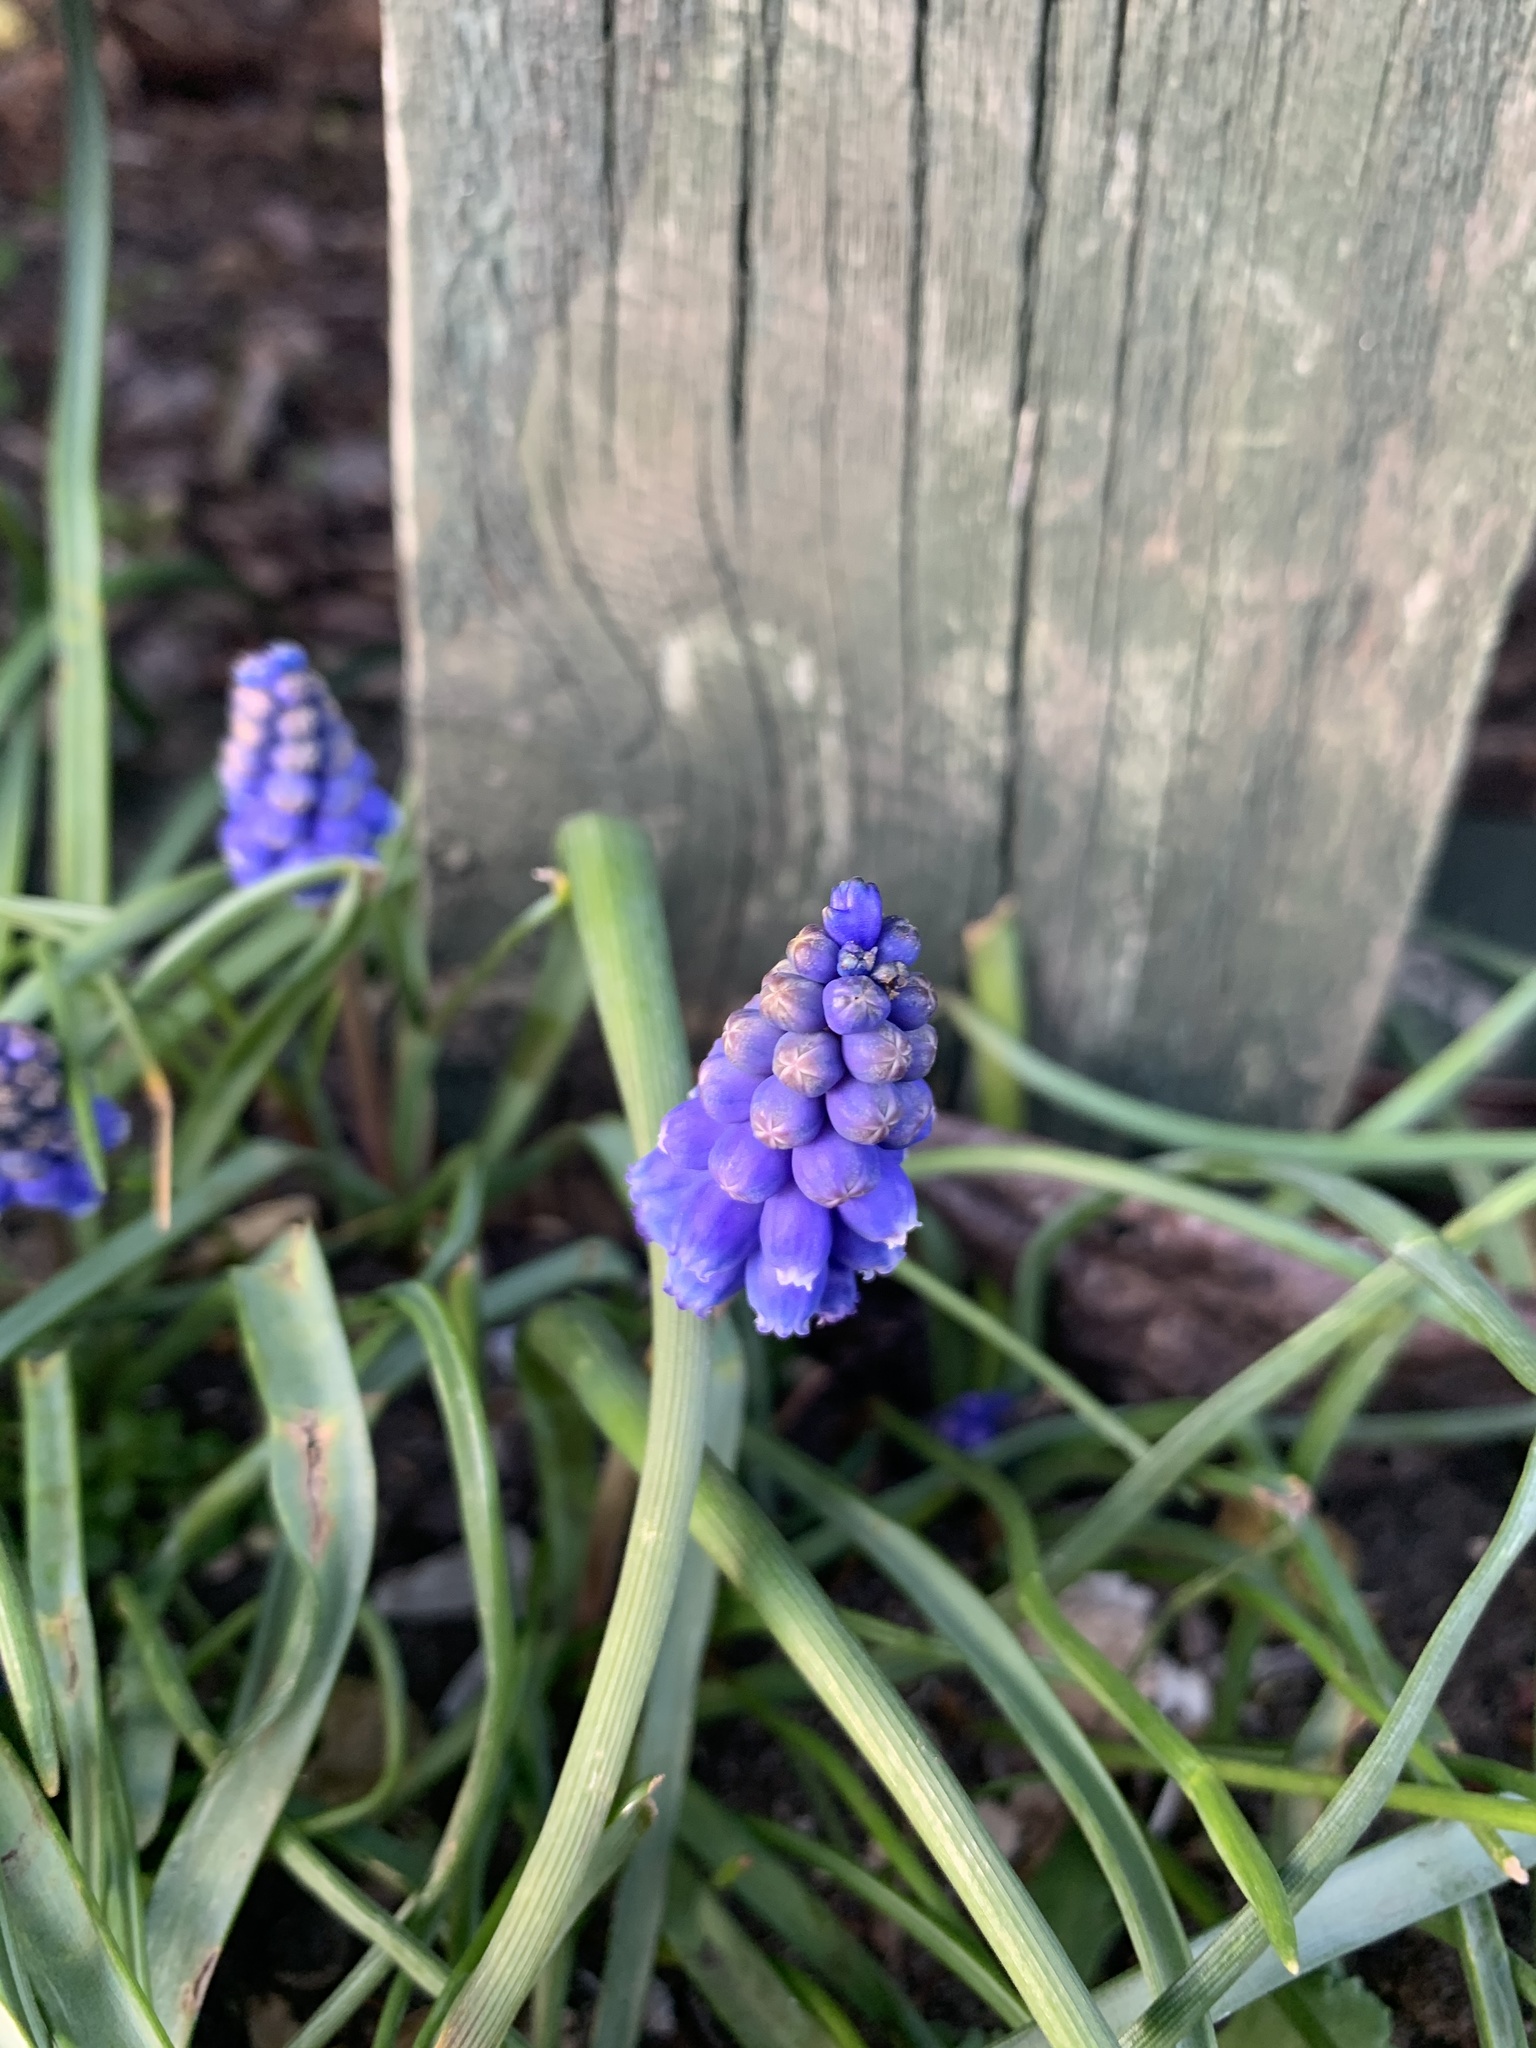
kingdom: Plantae
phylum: Tracheophyta
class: Liliopsida
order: Asparagales
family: Asparagaceae
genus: Muscari
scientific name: Muscari armeniacum
